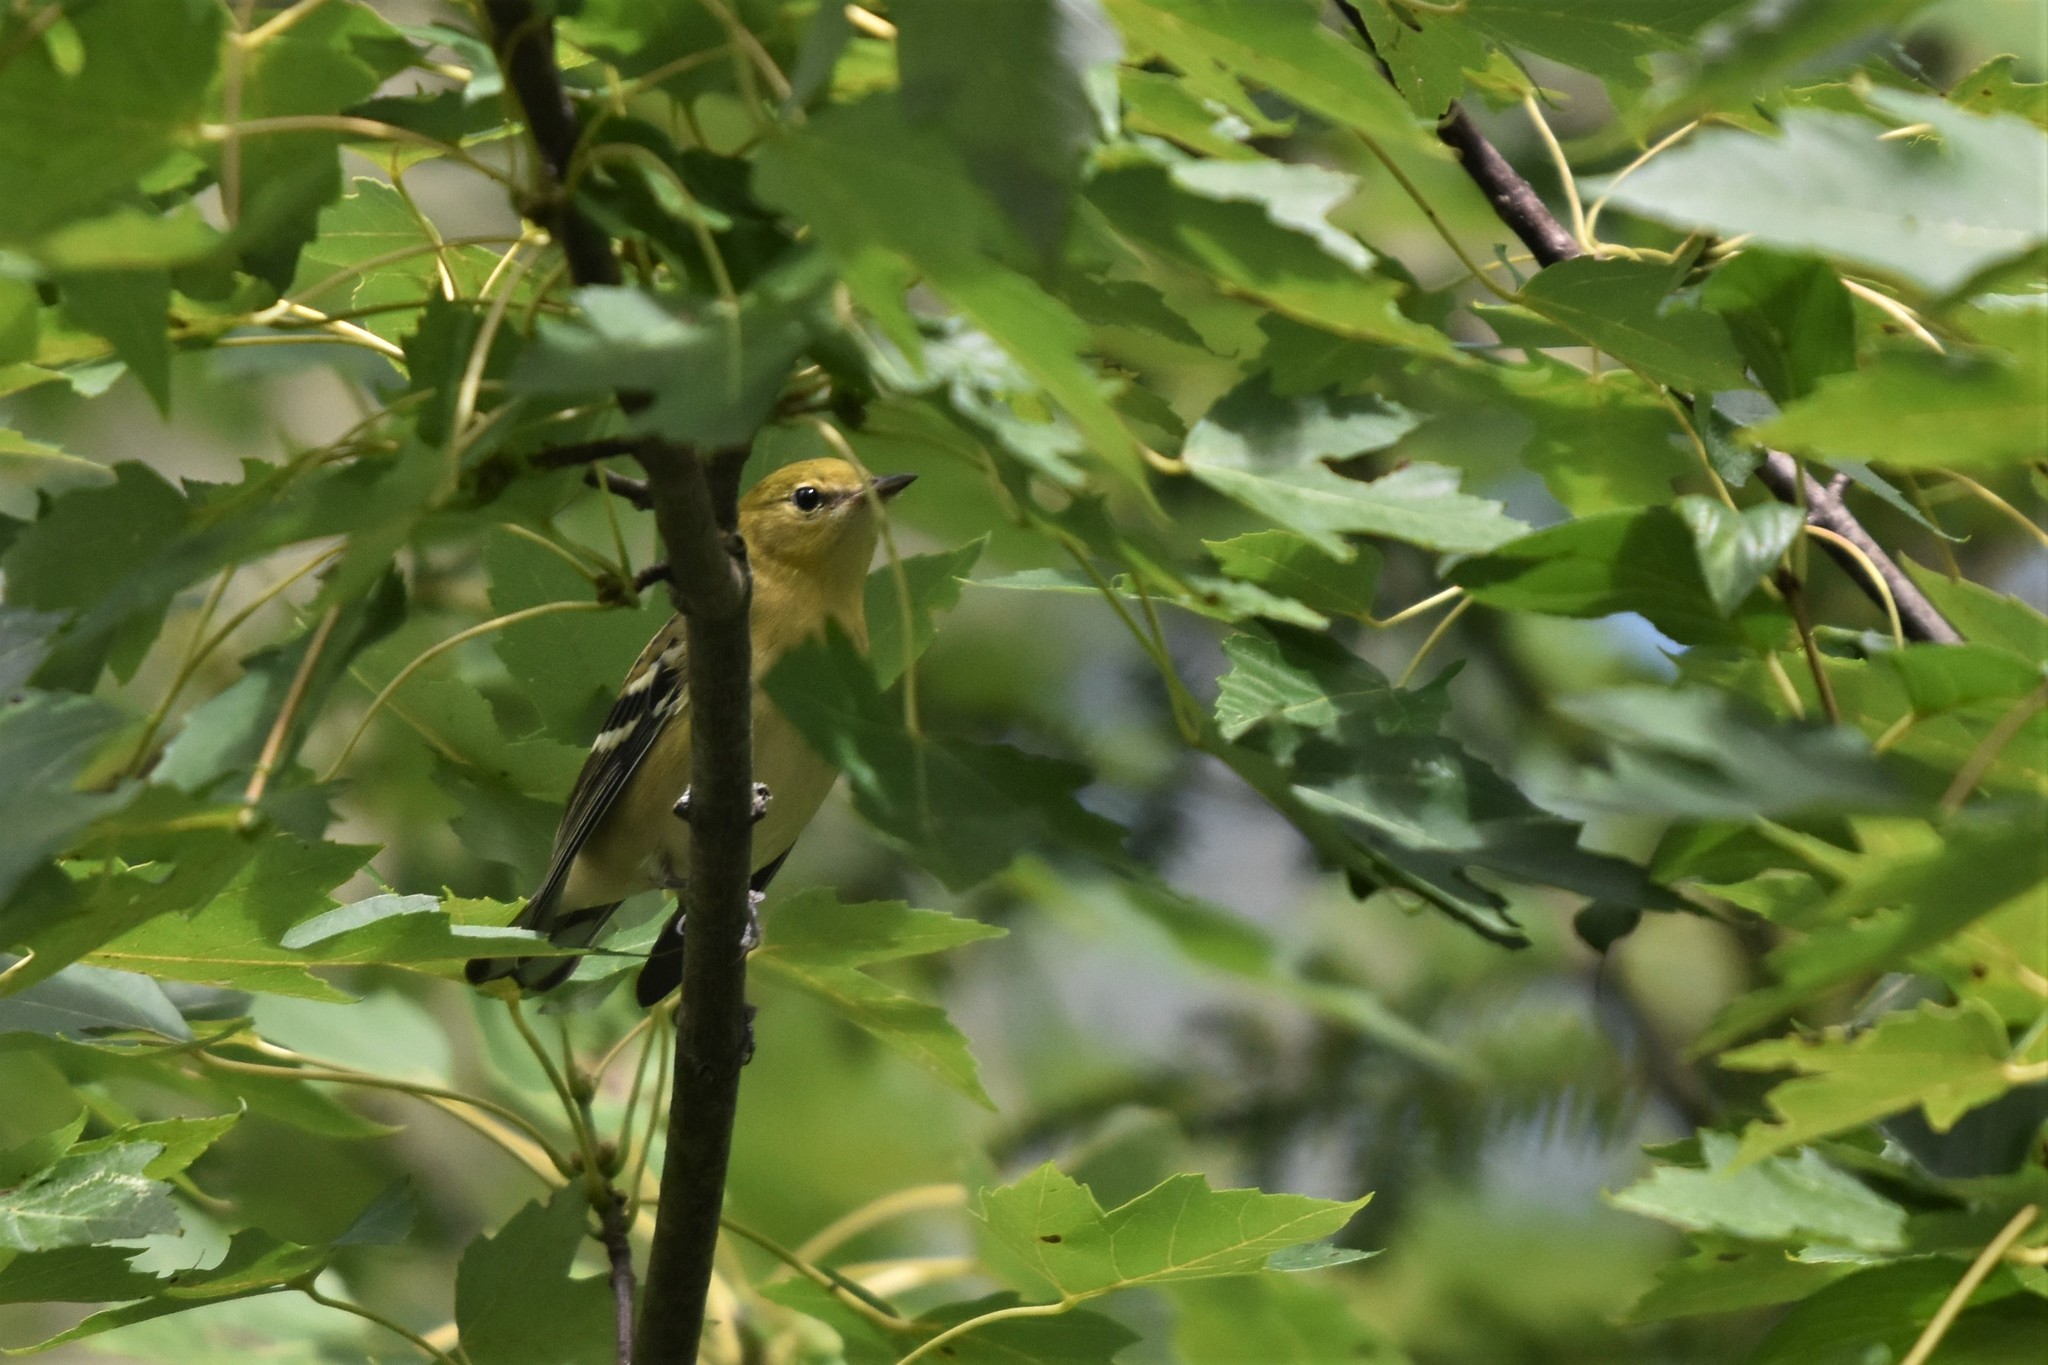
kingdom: Animalia
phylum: Chordata
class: Aves
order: Passeriformes
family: Parulidae
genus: Setophaga
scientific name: Setophaga castanea
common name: Bay-breasted warbler
